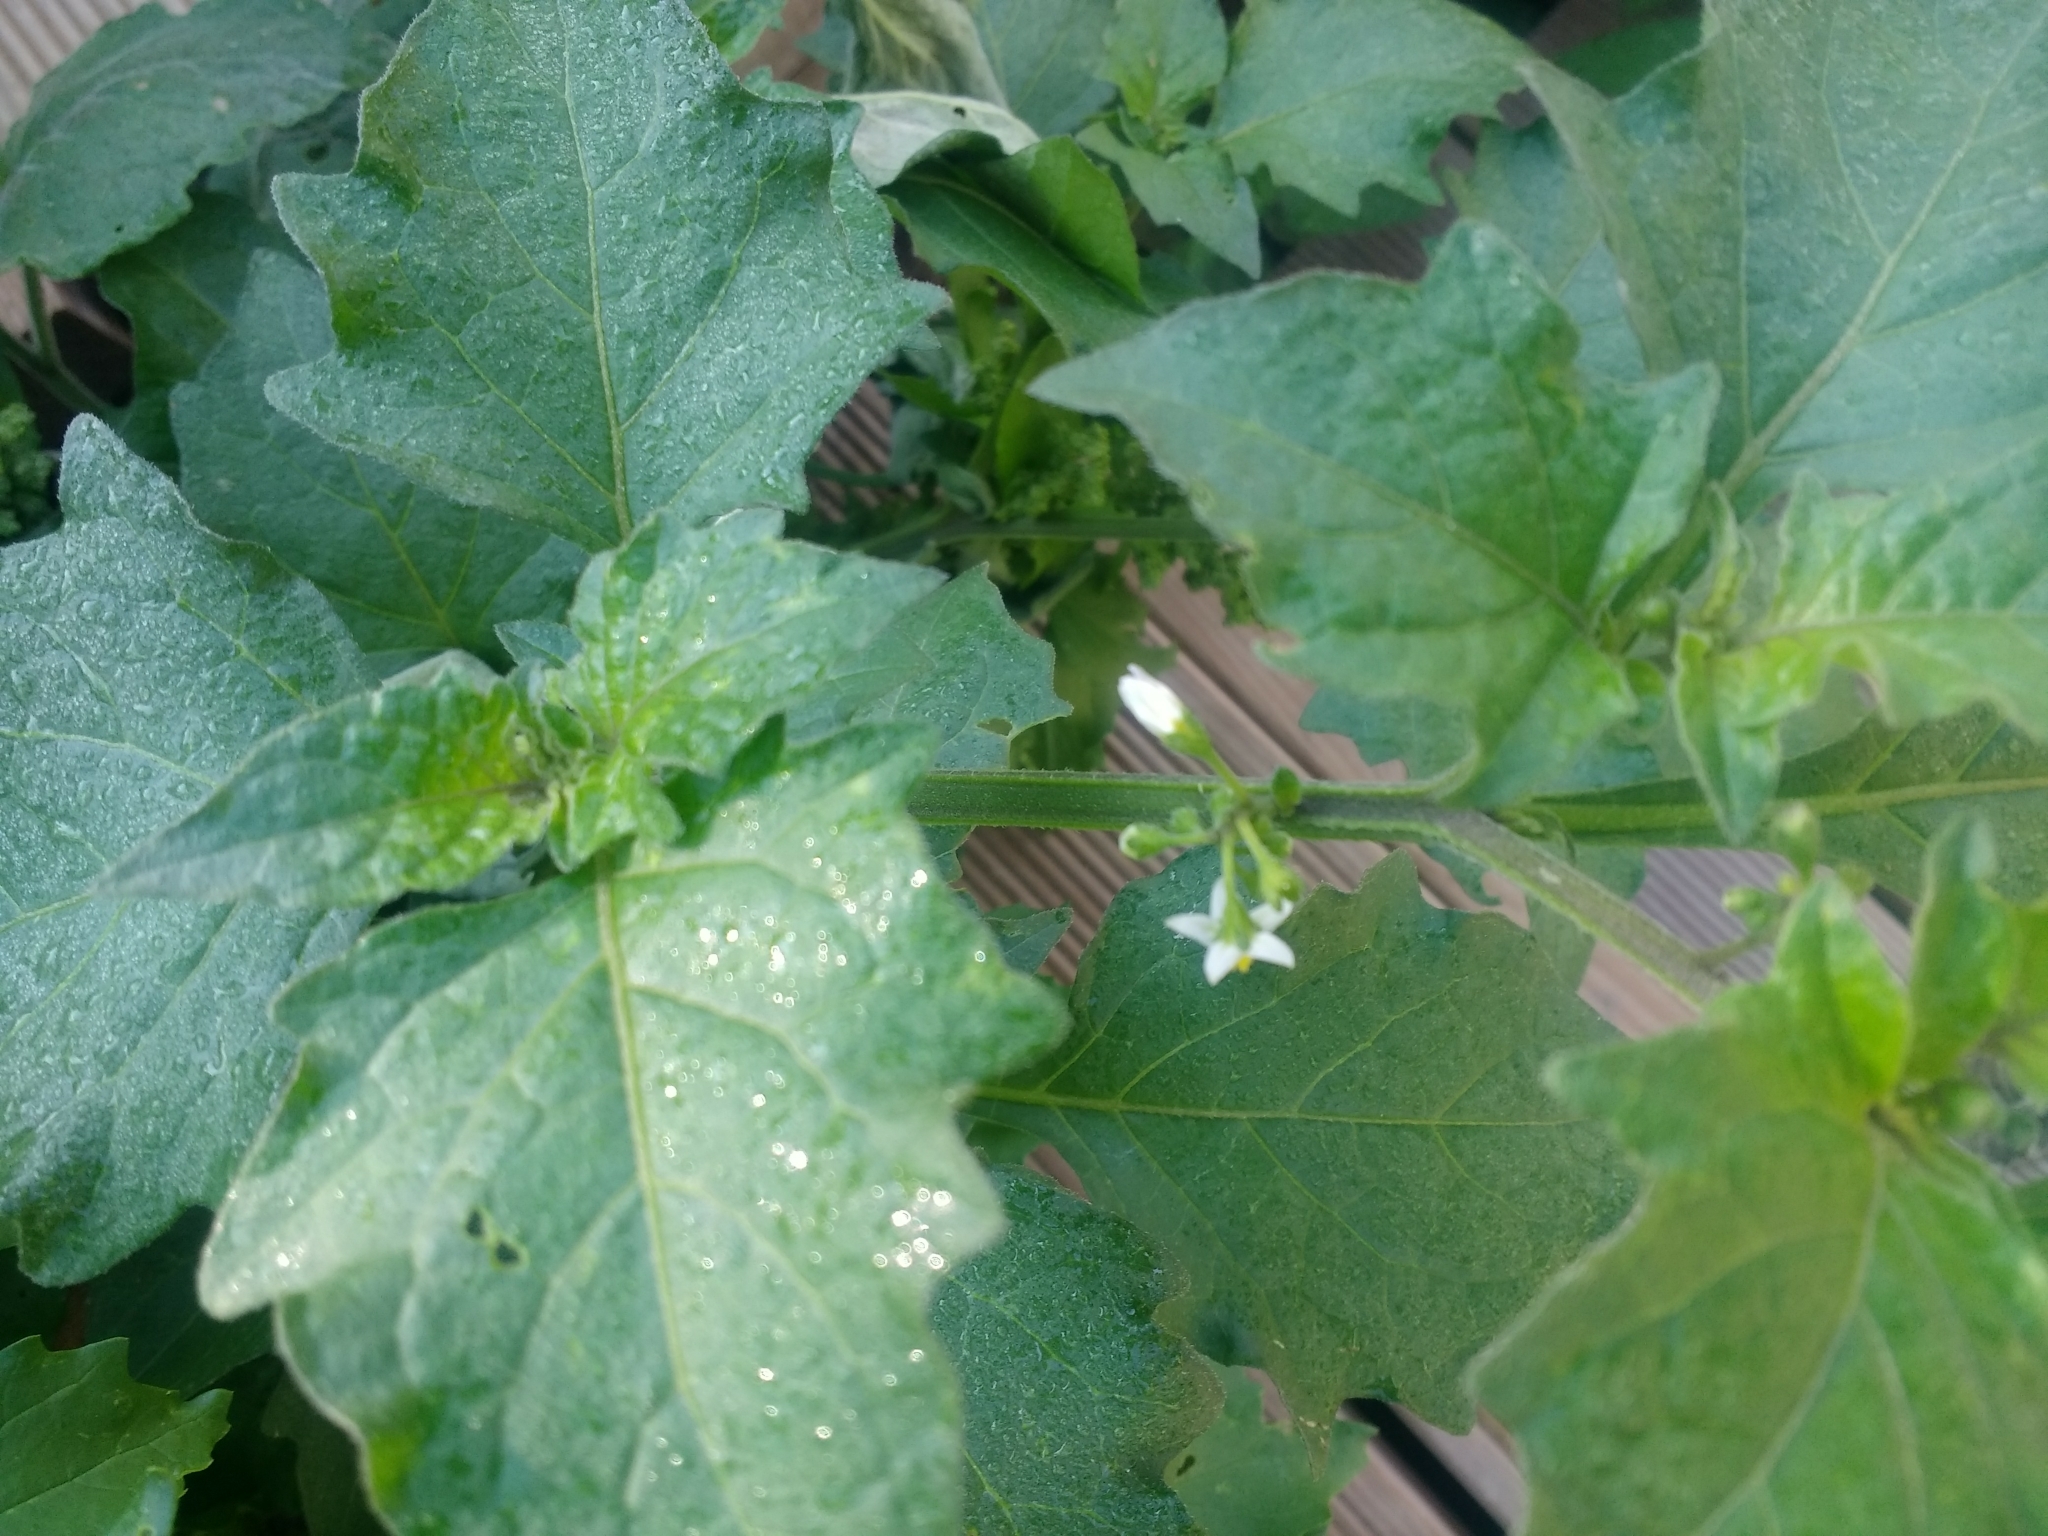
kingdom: Plantae
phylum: Tracheophyta
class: Magnoliopsida
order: Solanales
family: Solanaceae
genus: Solanum
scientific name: Solanum nigrum
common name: Black nightshade
